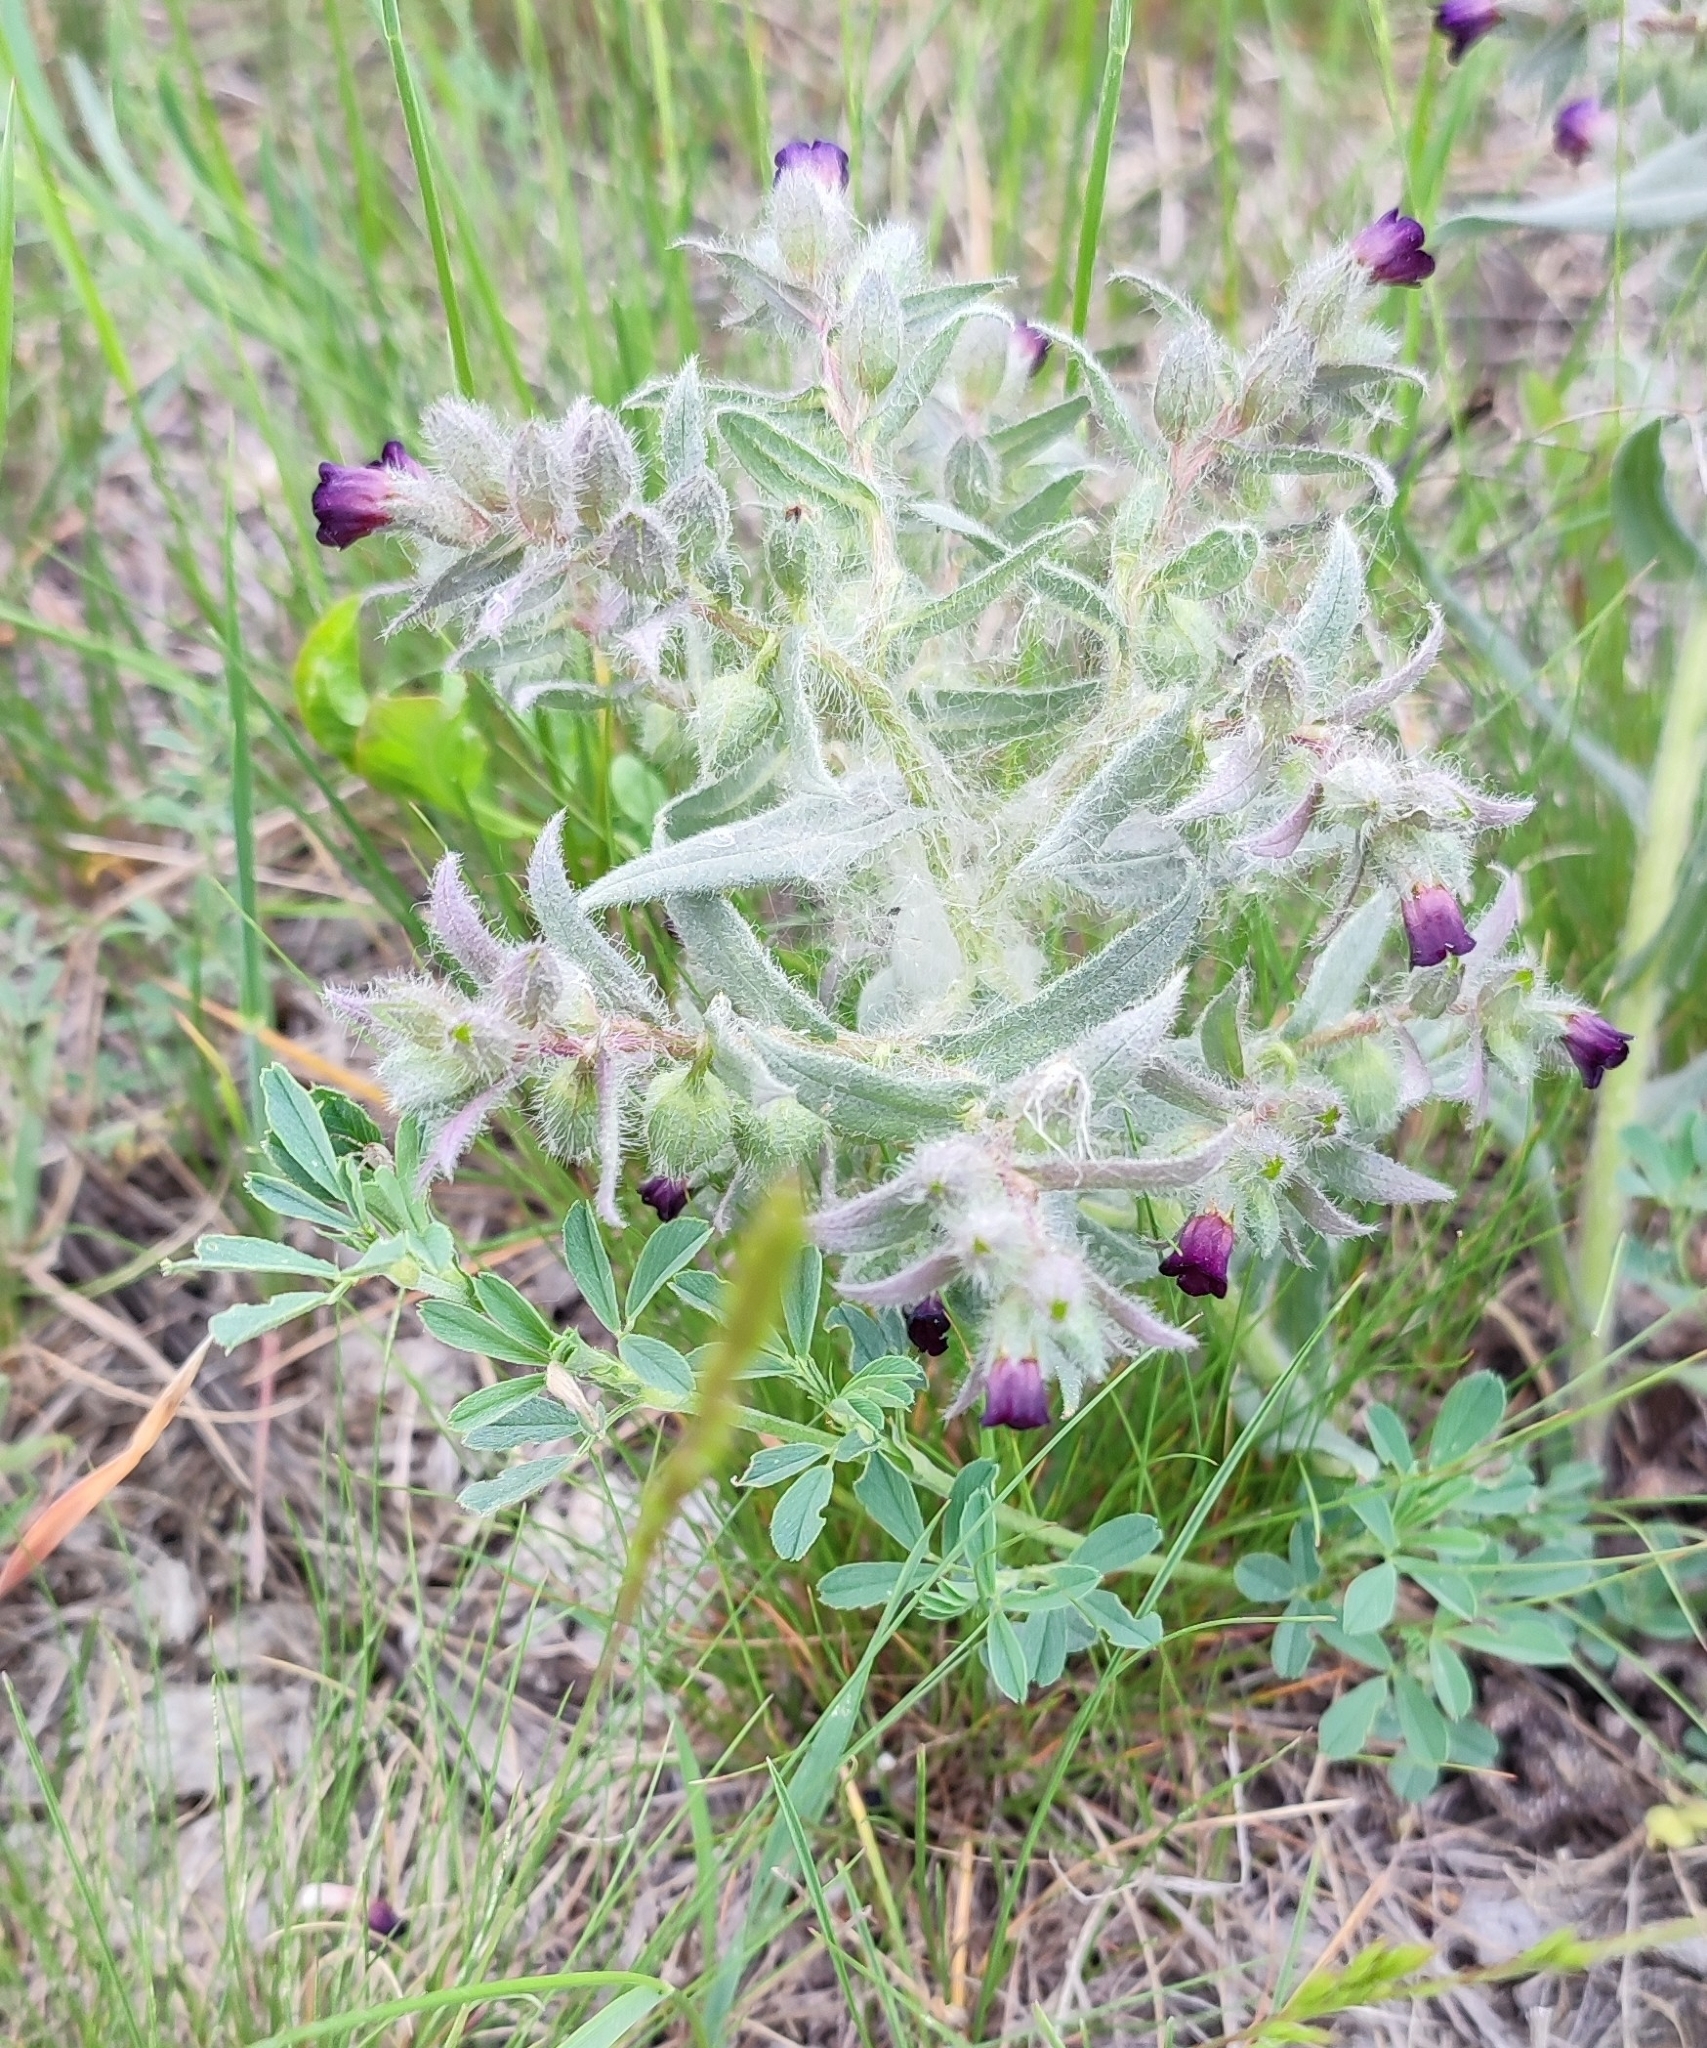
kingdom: Plantae
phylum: Tracheophyta
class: Magnoliopsida
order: Boraginales
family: Boraginaceae
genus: Nonea
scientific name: Nonea pulla
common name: Brown nonea
